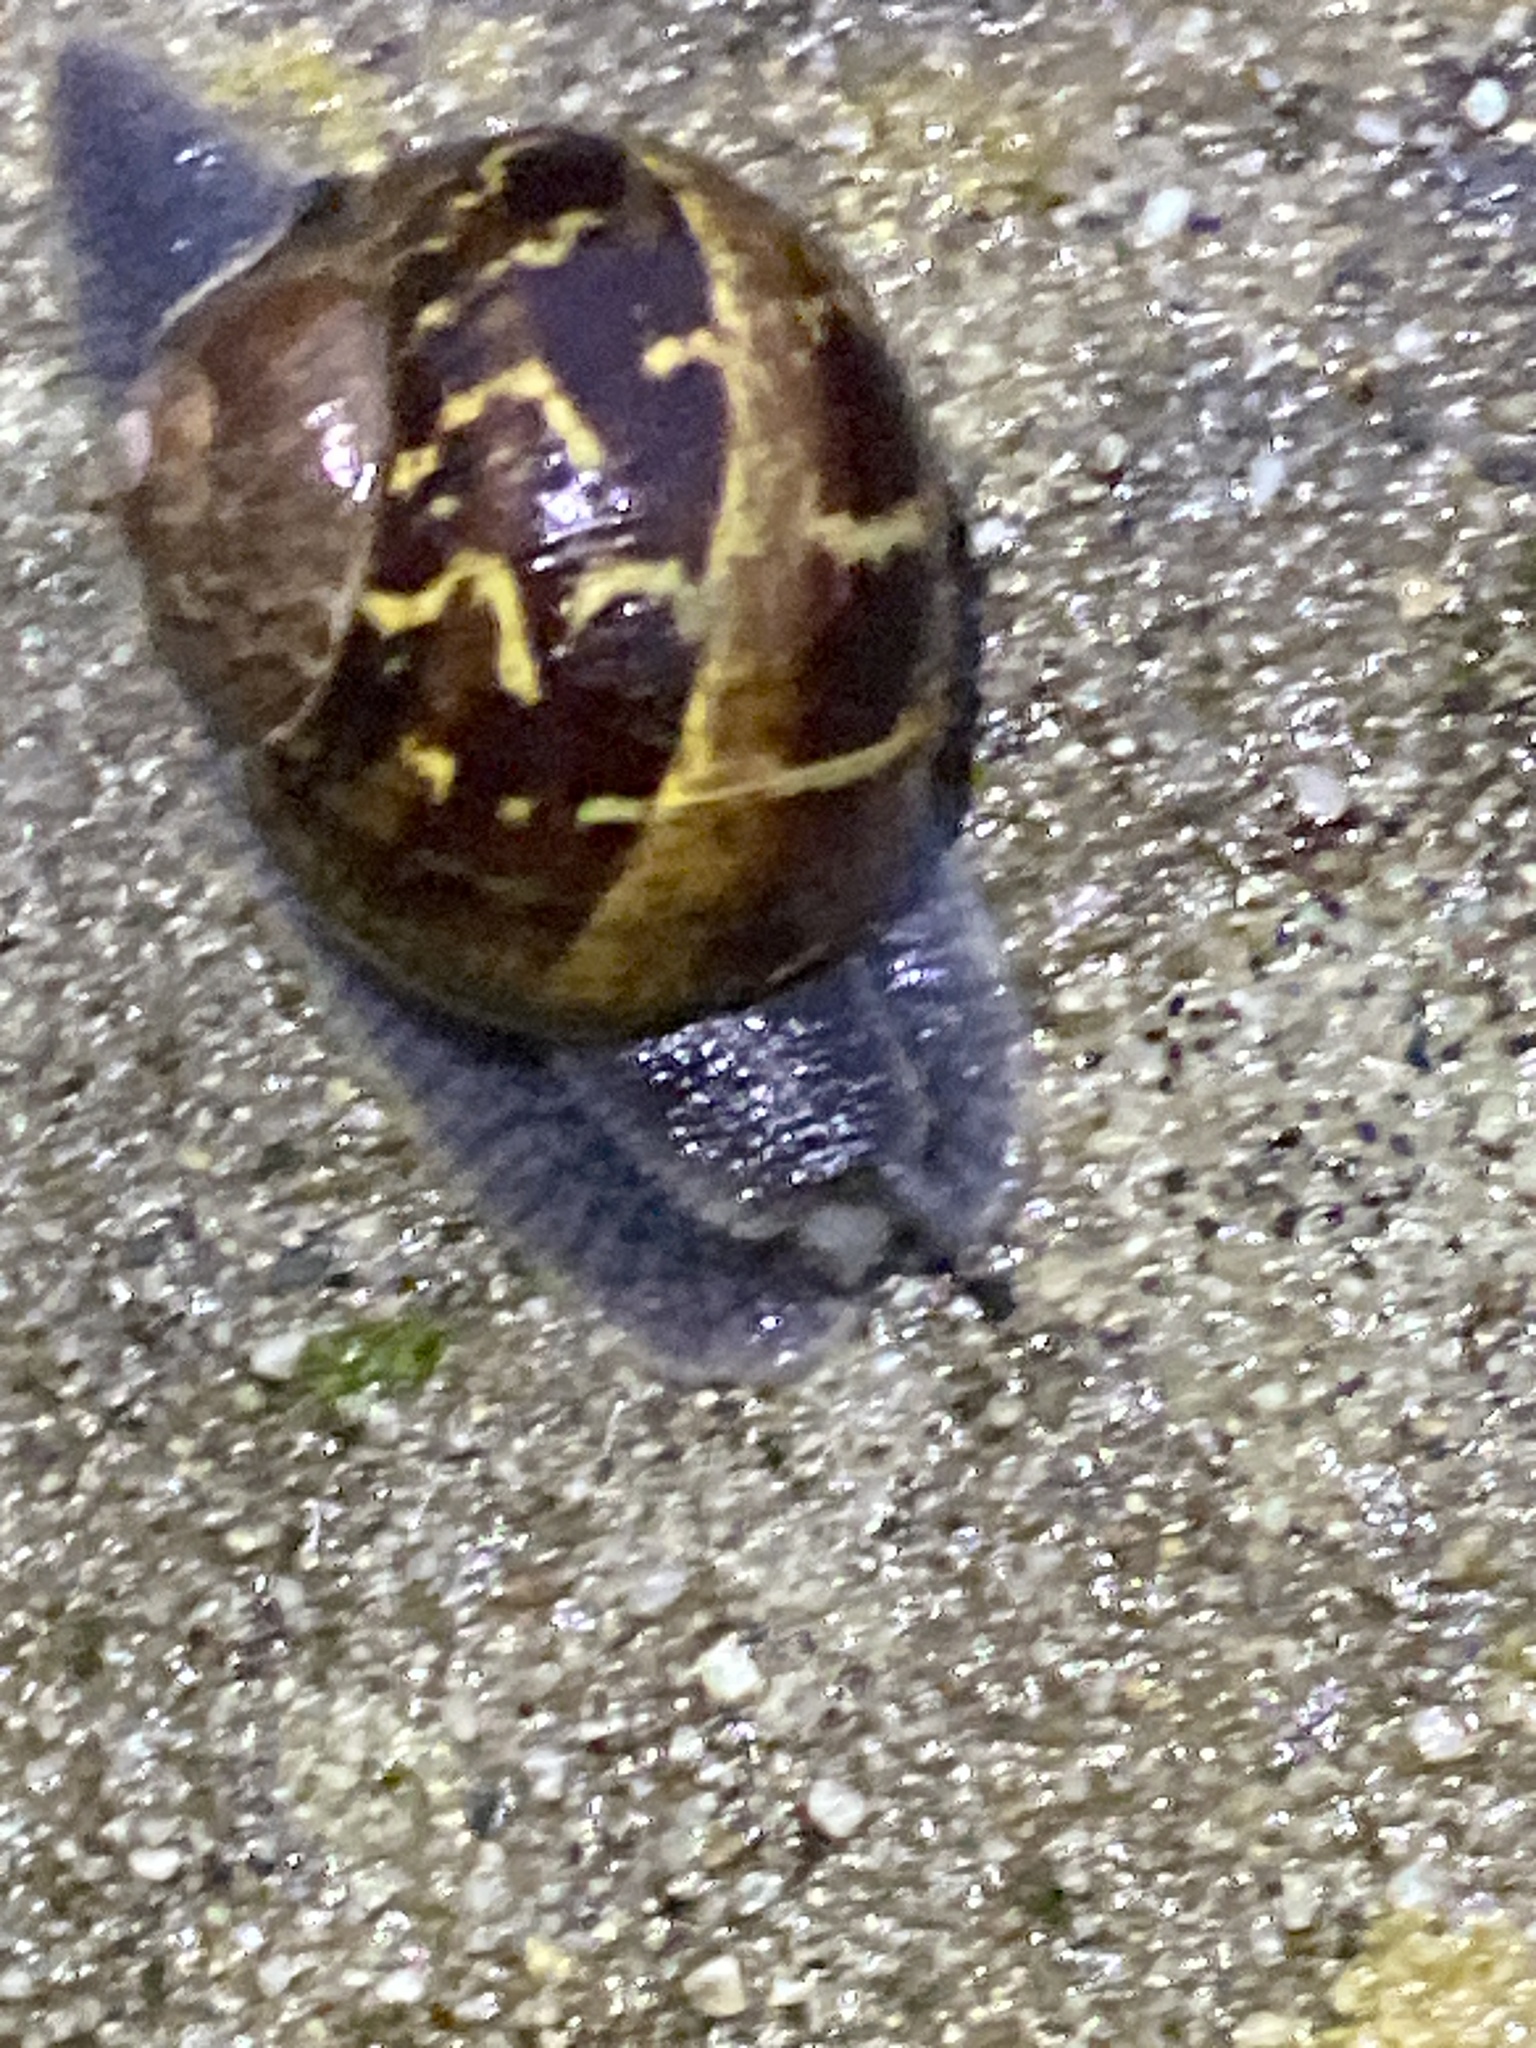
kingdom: Animalia
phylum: Mollusca
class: Gastropoda
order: Stylommatophora
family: Helicidae
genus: Cornu
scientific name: Cornu aspersum
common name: Brown garden snail
